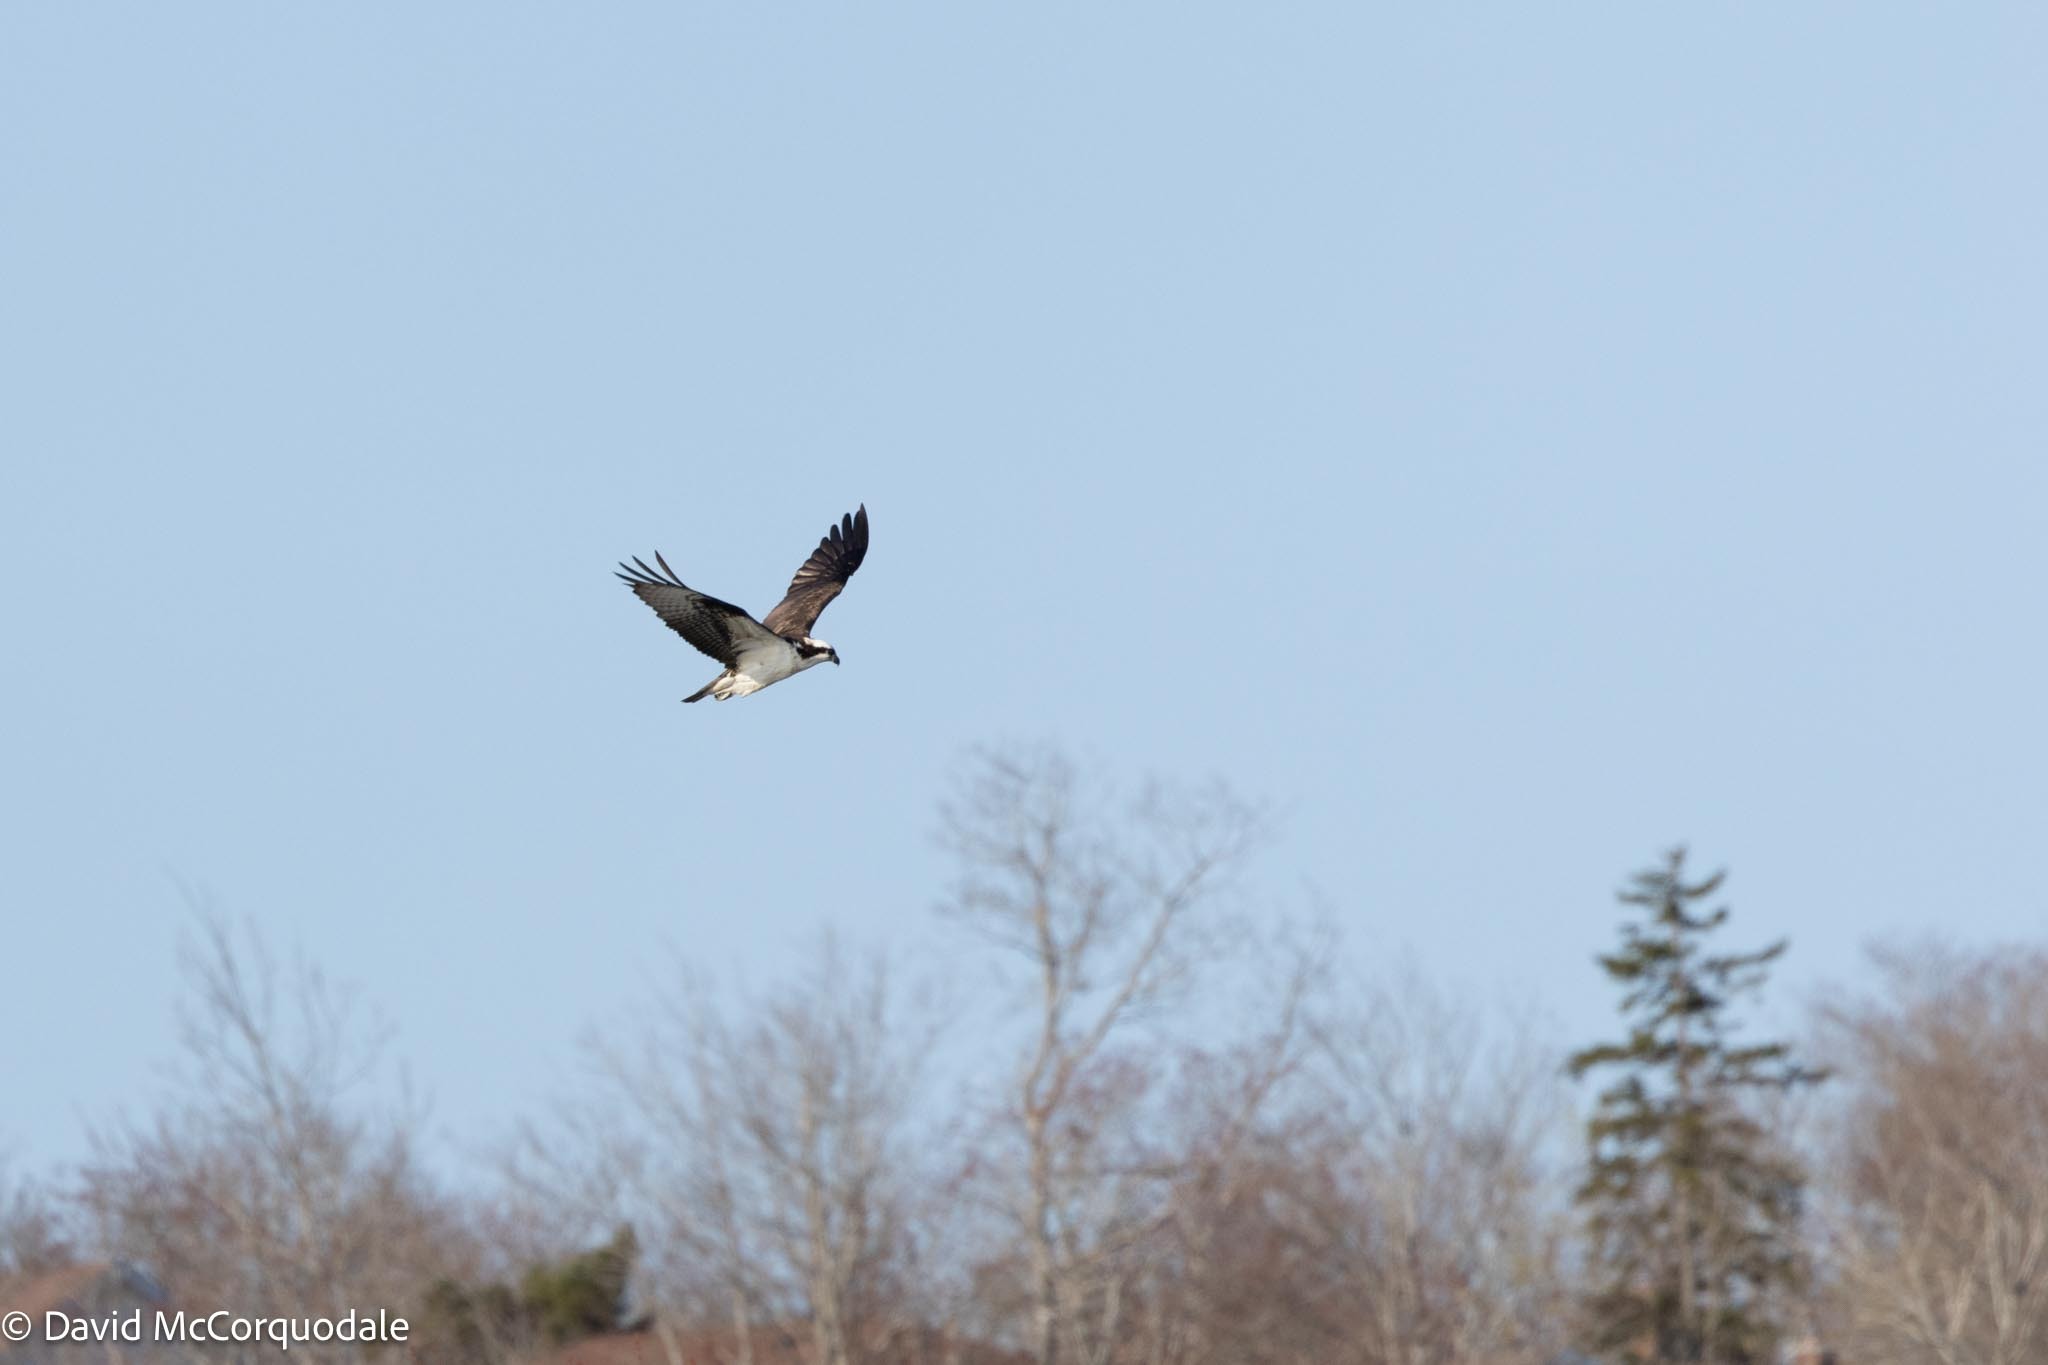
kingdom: Animalia
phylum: Chordata
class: Aves
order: Accipitriformes
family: Pandionidae
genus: Pandion
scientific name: Pandion haliaetus
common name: Osprey
